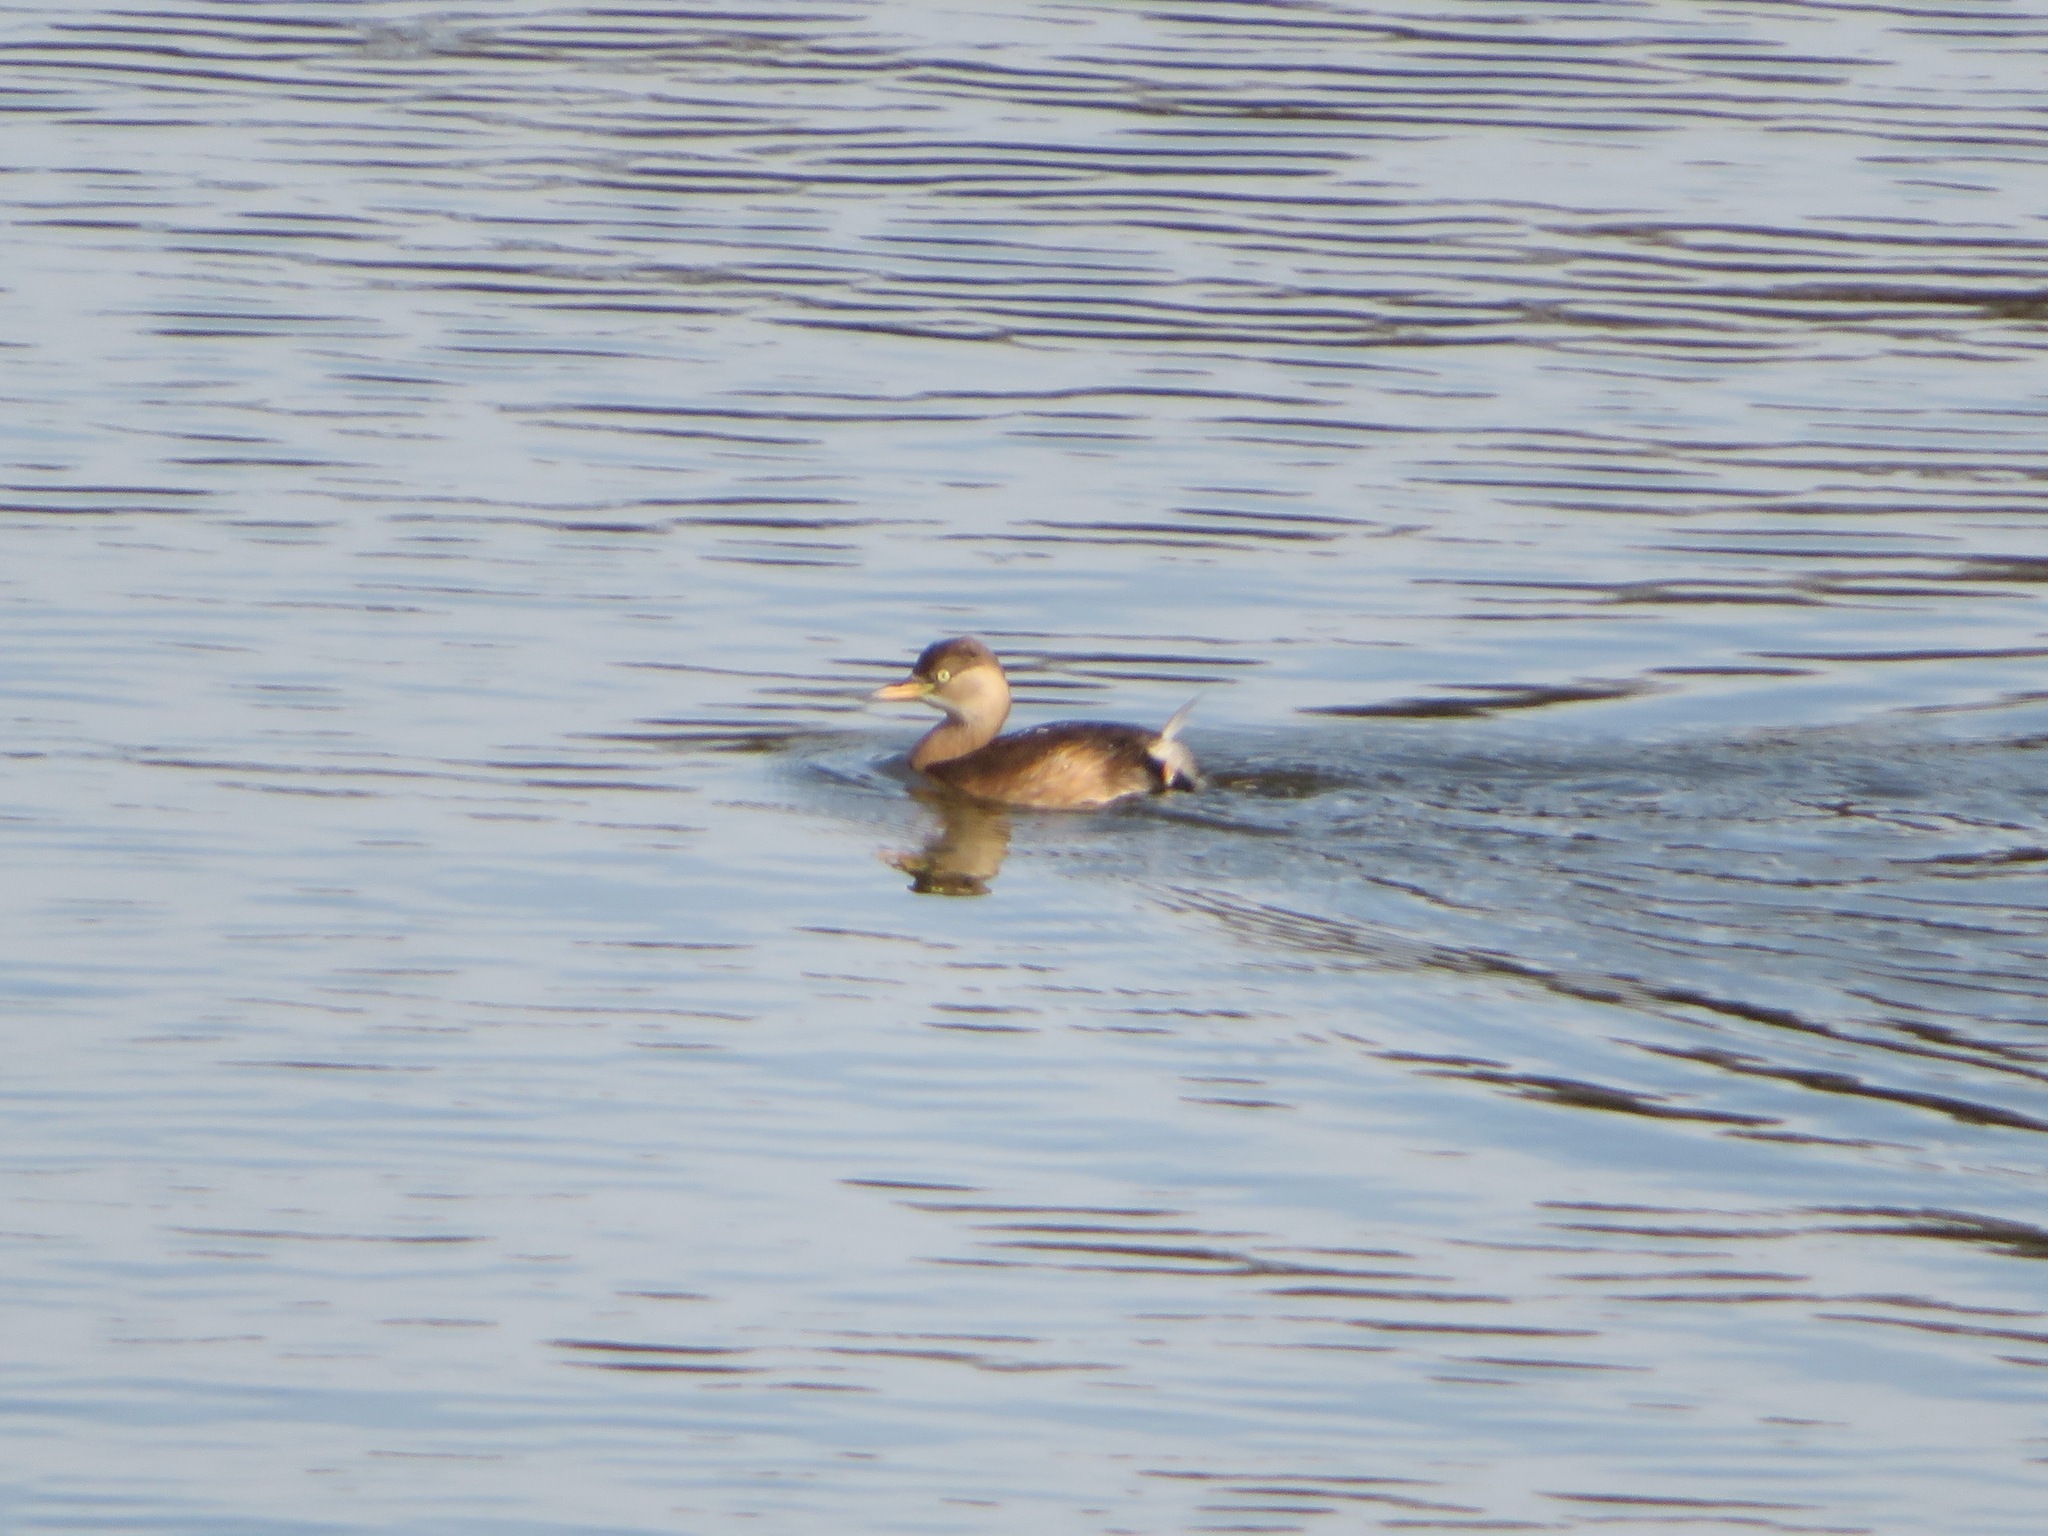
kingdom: Animalia
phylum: Chordata
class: Aves
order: Podicipediformes
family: Podicipedidae
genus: Tachybaptus
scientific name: Tachybaptus ruficollis
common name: Little grebe
